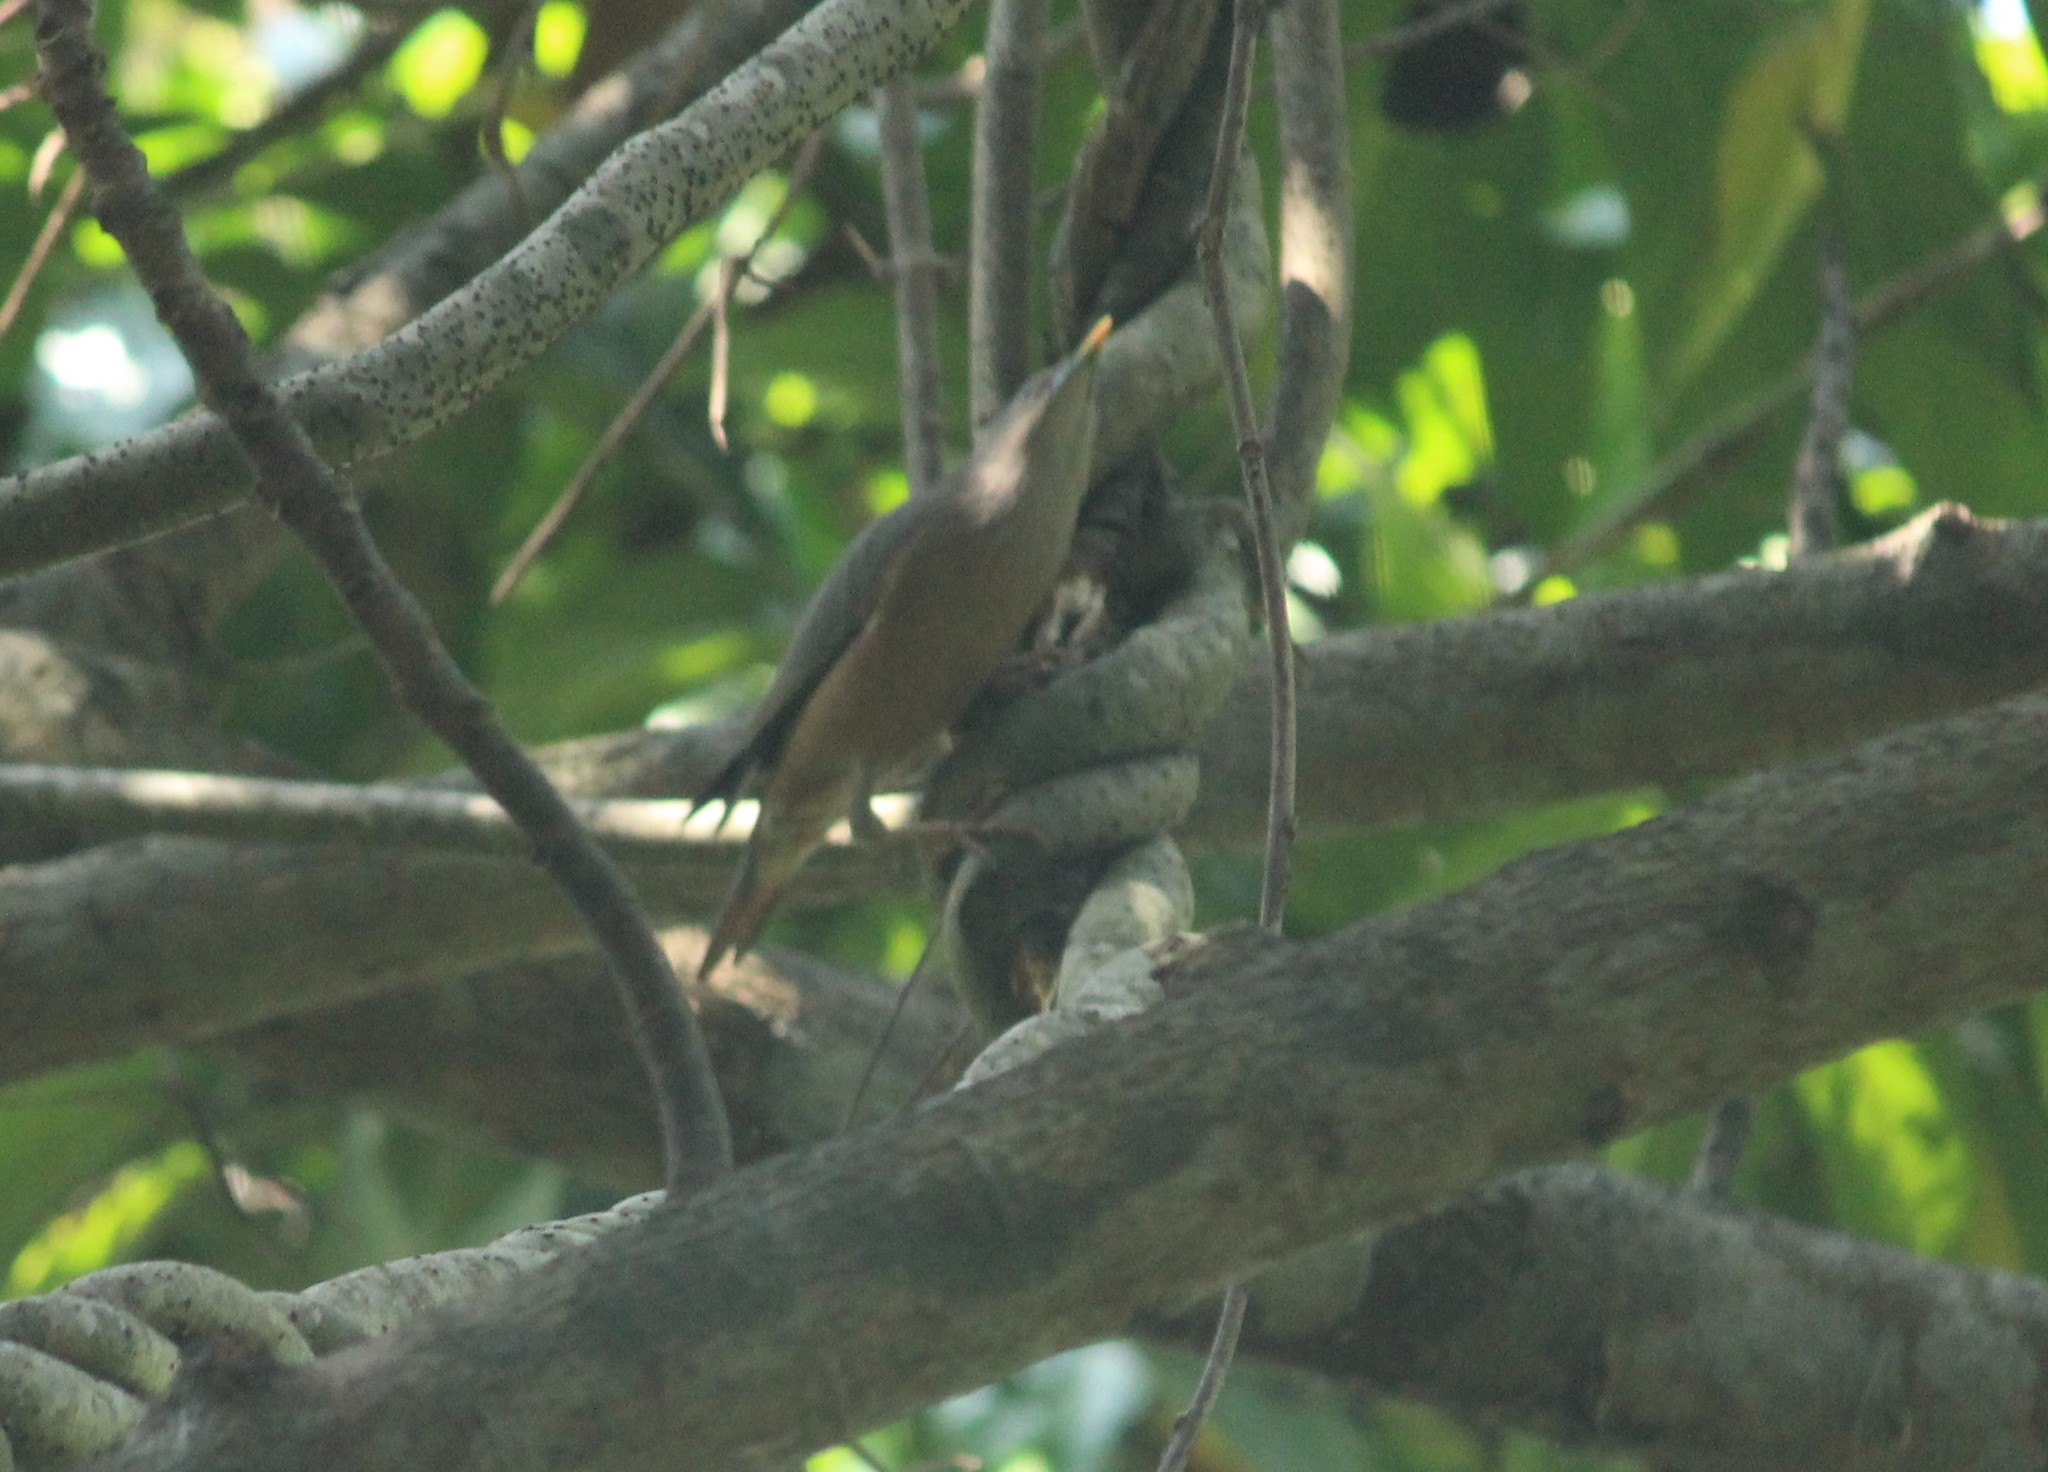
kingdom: Animalia
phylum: Chordata
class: Aves
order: Passeriformes
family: Sturnidae
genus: Sturnia
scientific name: Sturnia malabarica
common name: Chestnut-tailed starling
